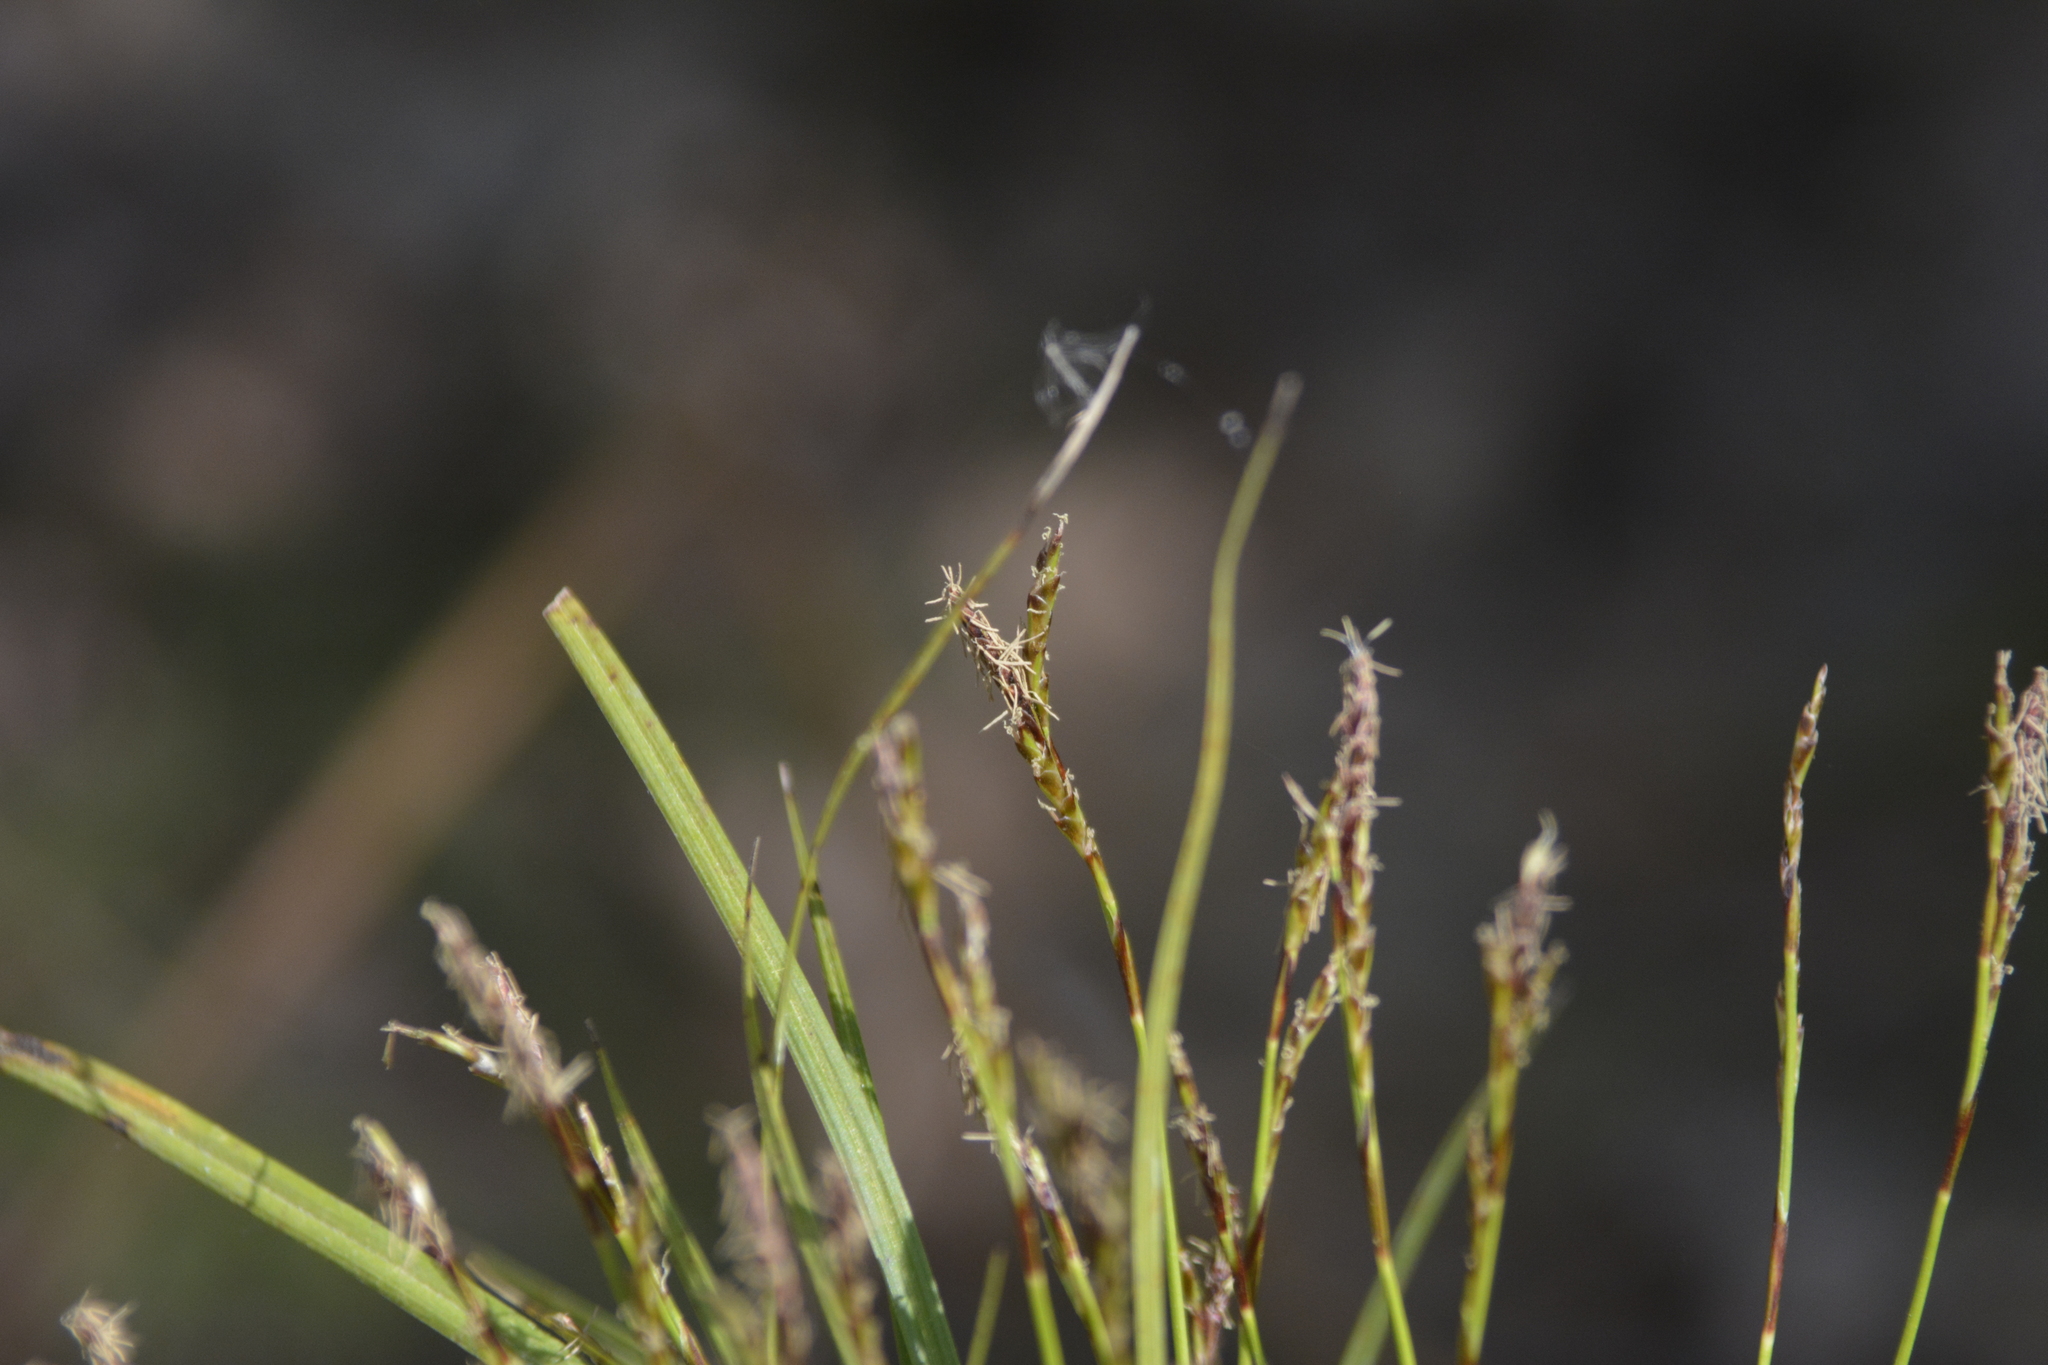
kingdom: Plantae
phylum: Tracheophyta
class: Liliopsida
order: Poales
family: Cyperaceae
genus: Carex
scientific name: Carex digitata
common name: Fingered sedge
